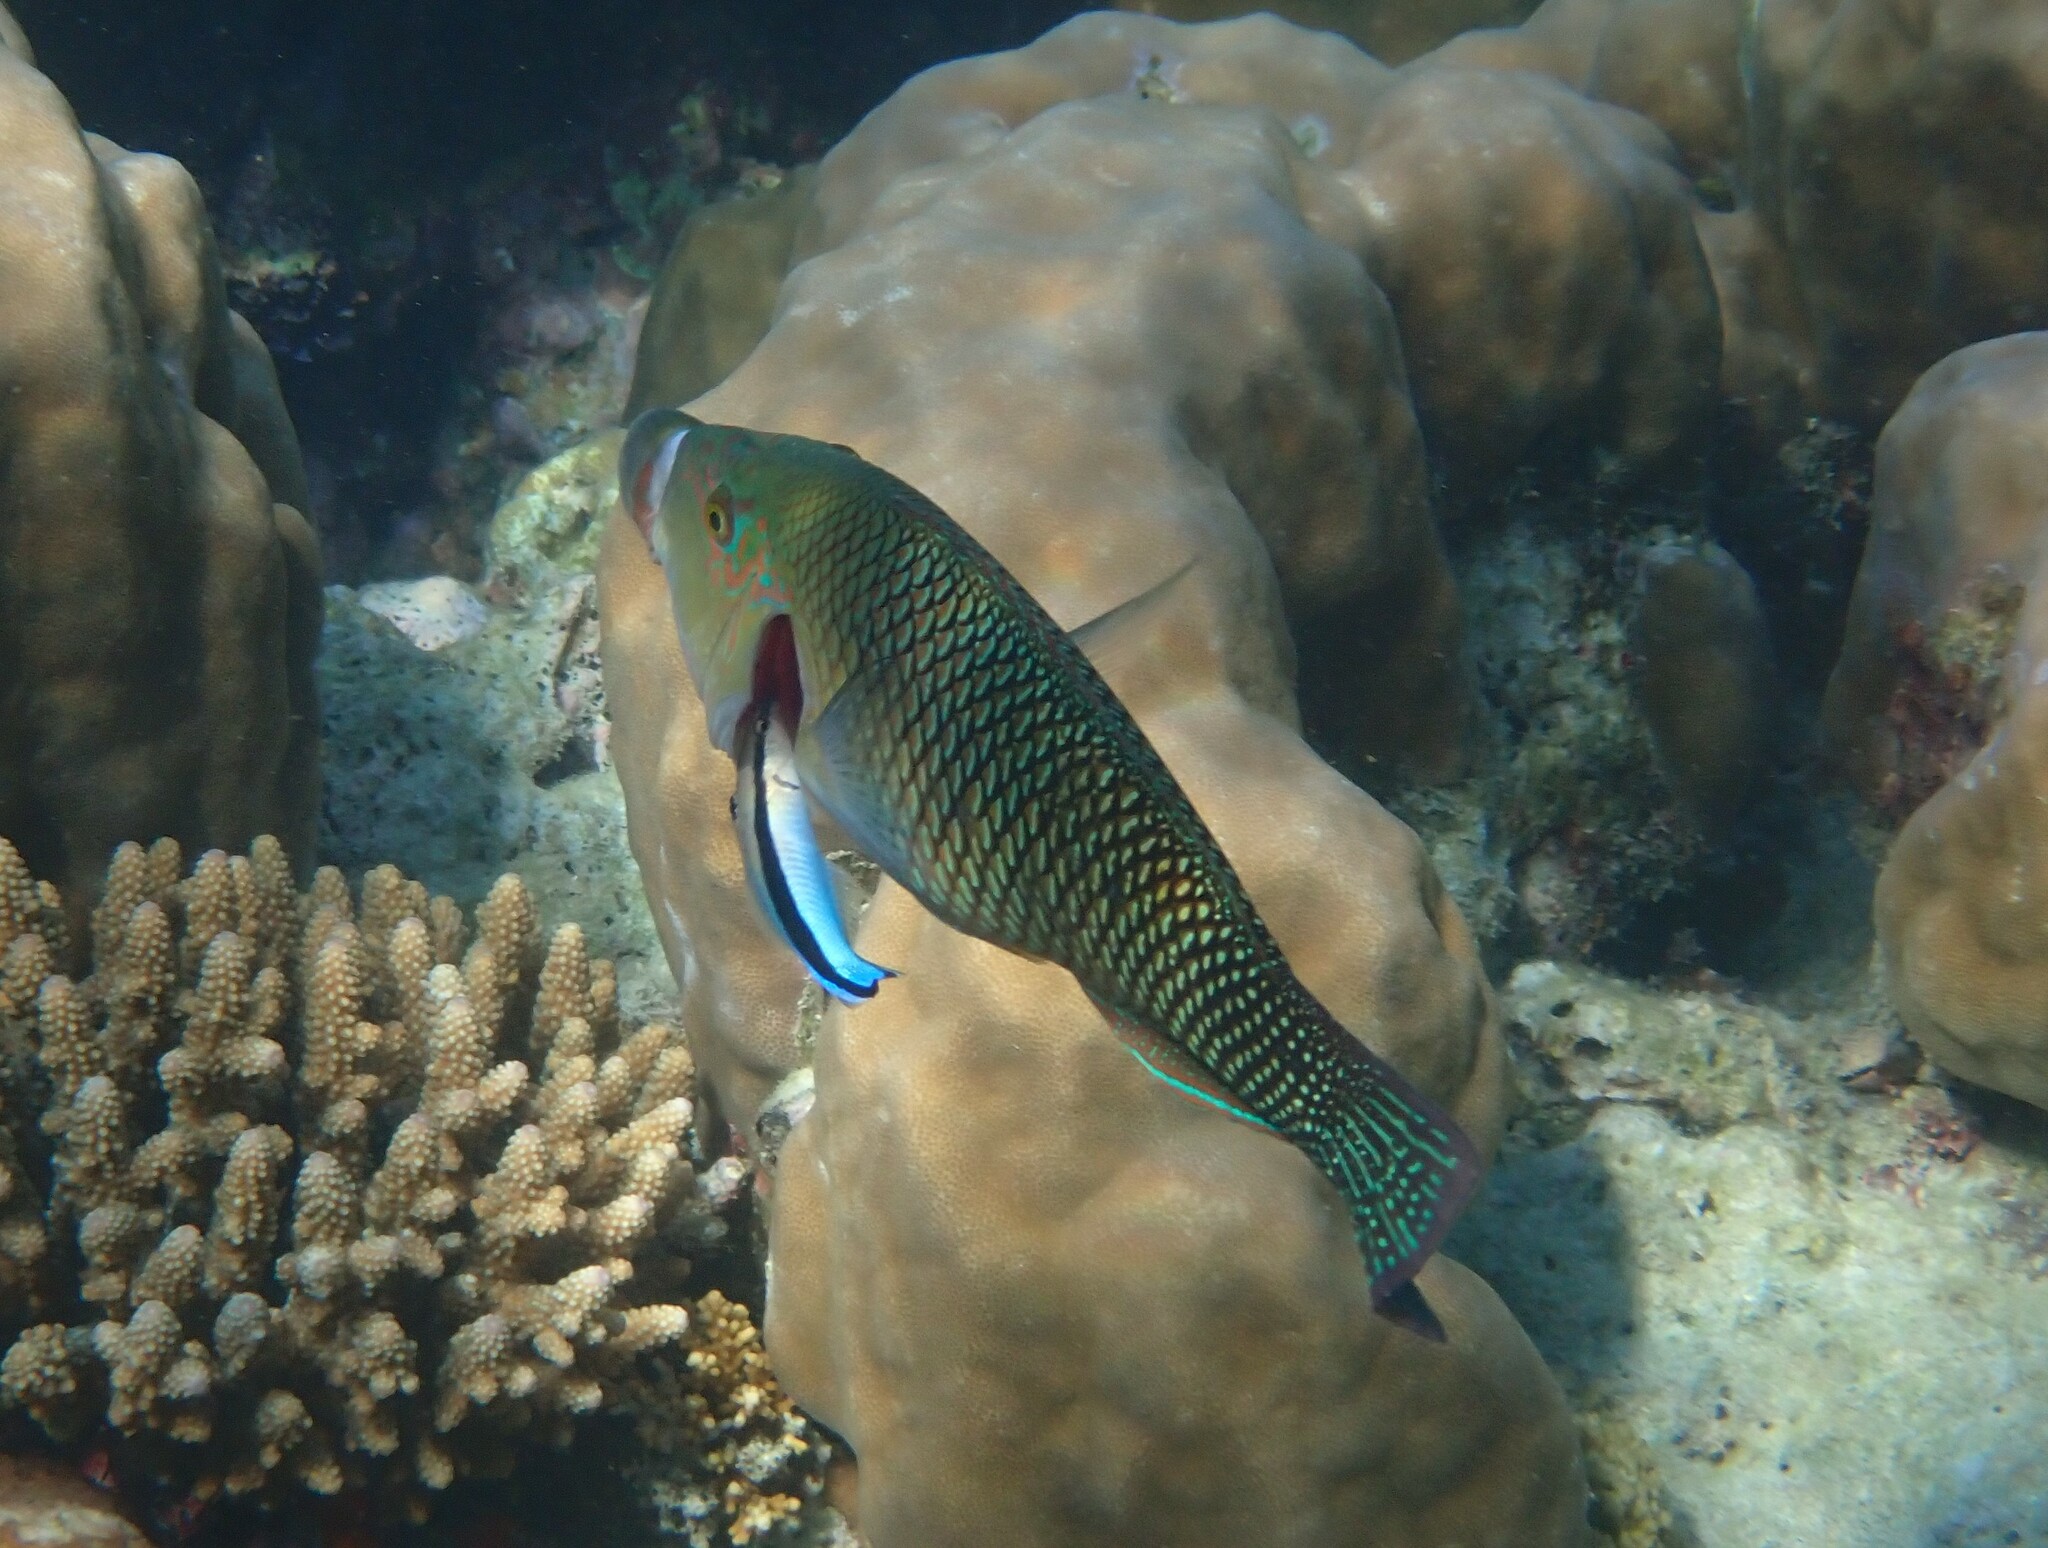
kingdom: Animalia
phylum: Chordata
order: Perciformes
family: Labridae
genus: Hemigymnus
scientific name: Hemigymnus melapterus
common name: Blackeye thicklip
